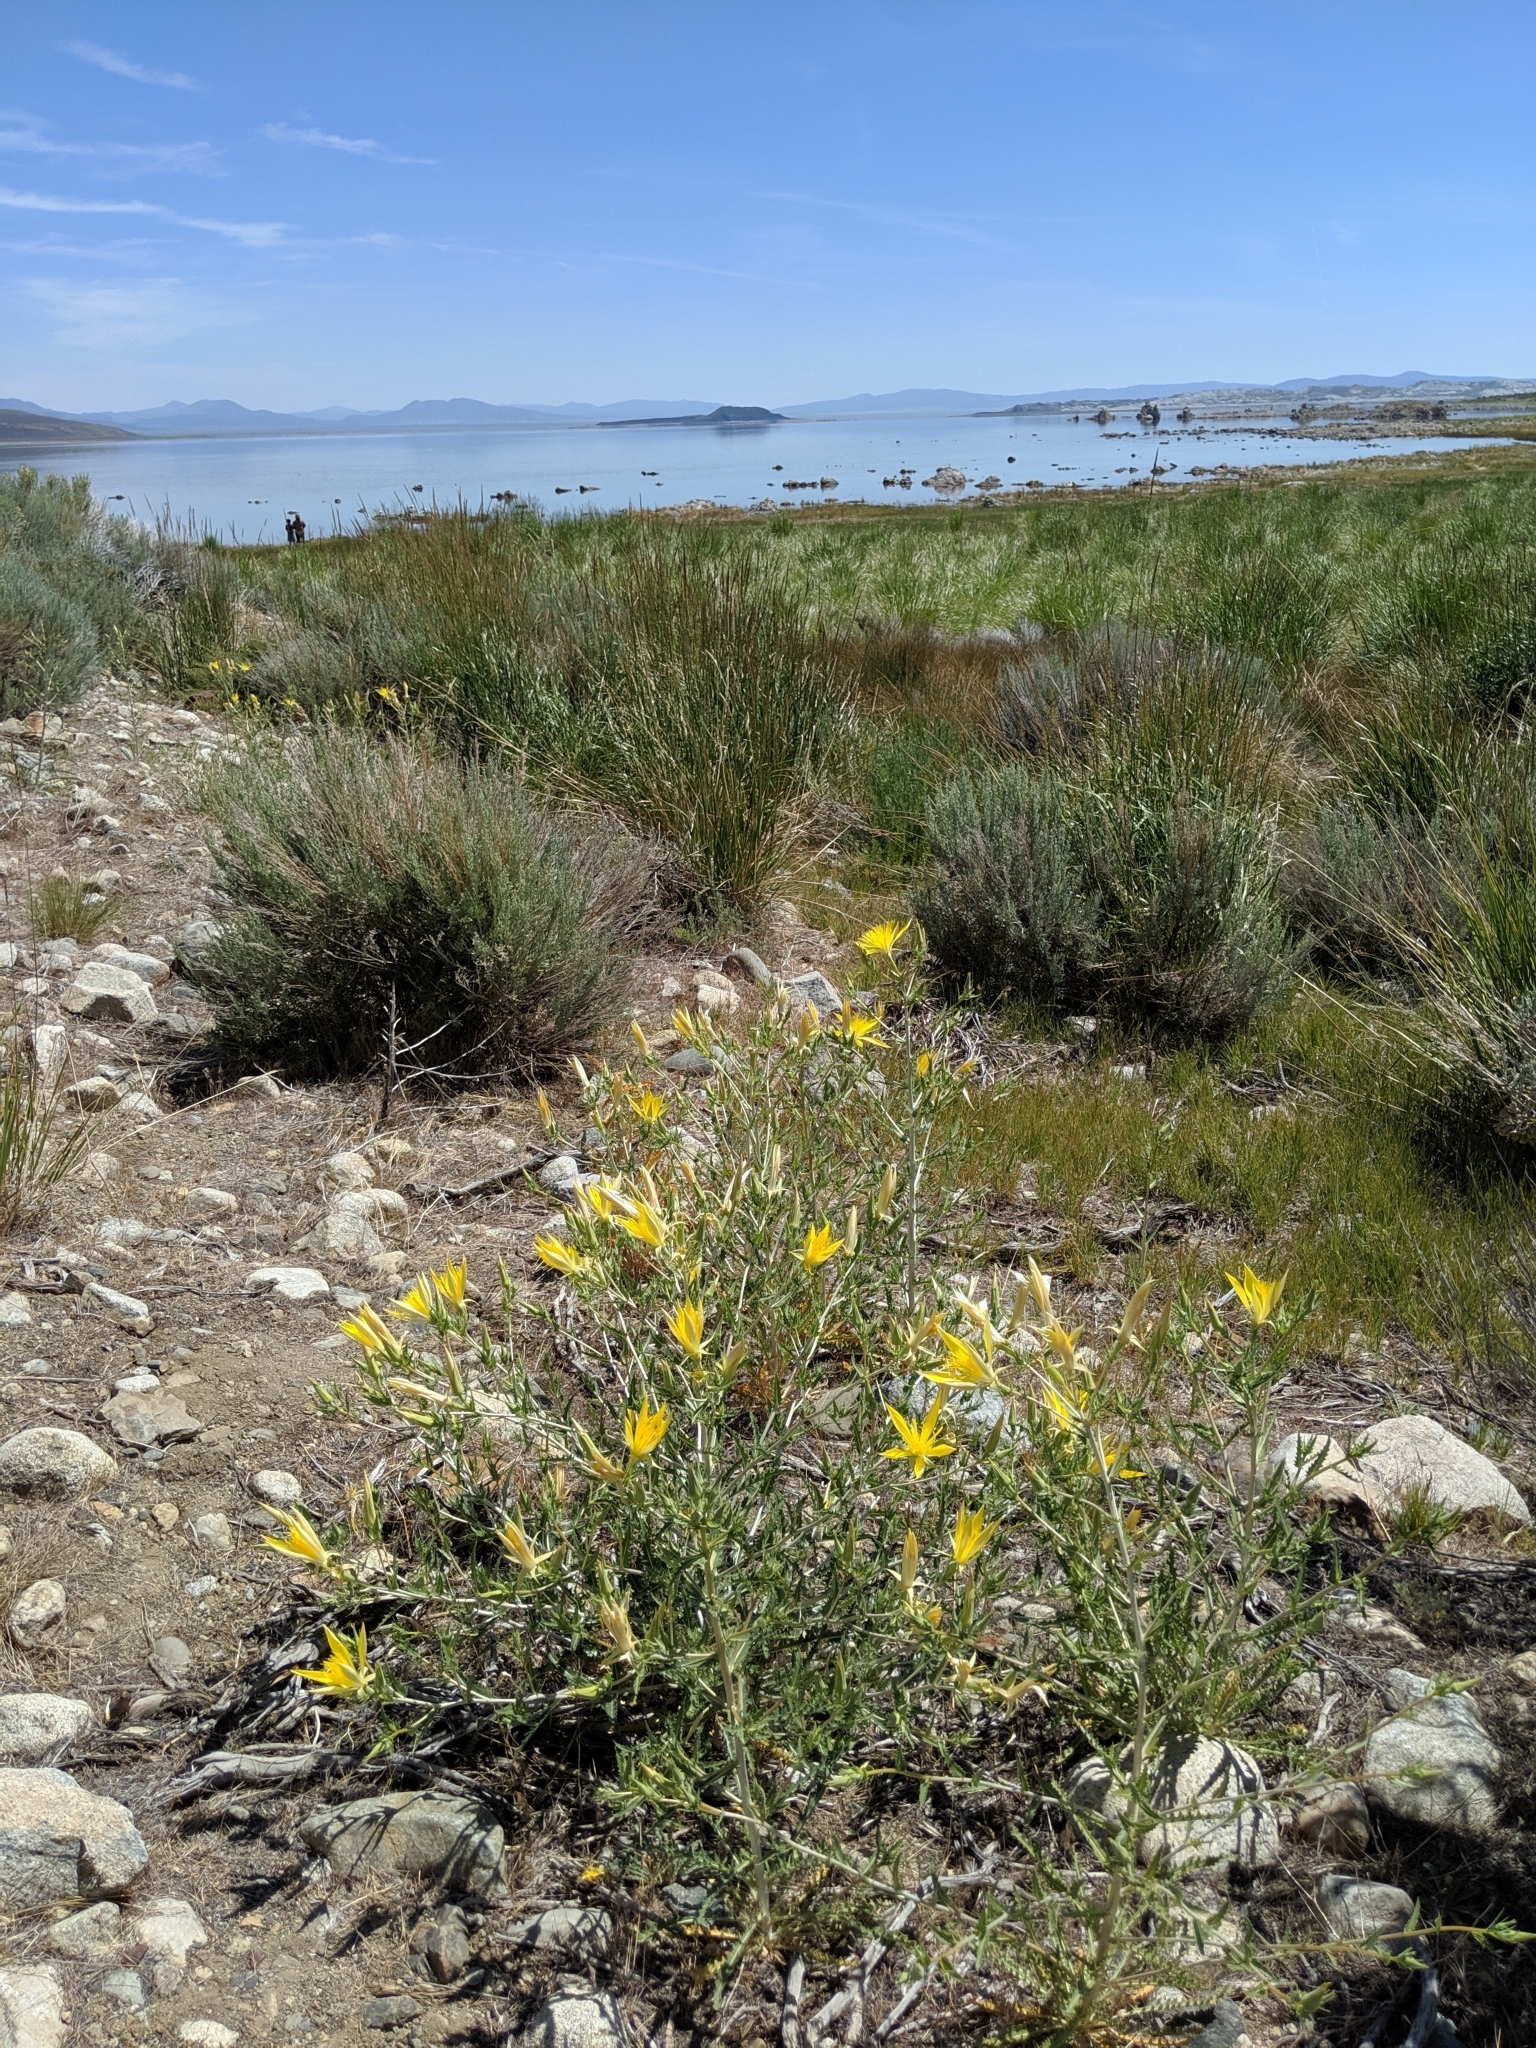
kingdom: Plantae
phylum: Tracheophyta
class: Magnoliopsida
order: Cornales
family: Loasaceae
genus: Mentzelia
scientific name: Mentzelia laevicaulis
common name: Smooth-stem blazingstar
